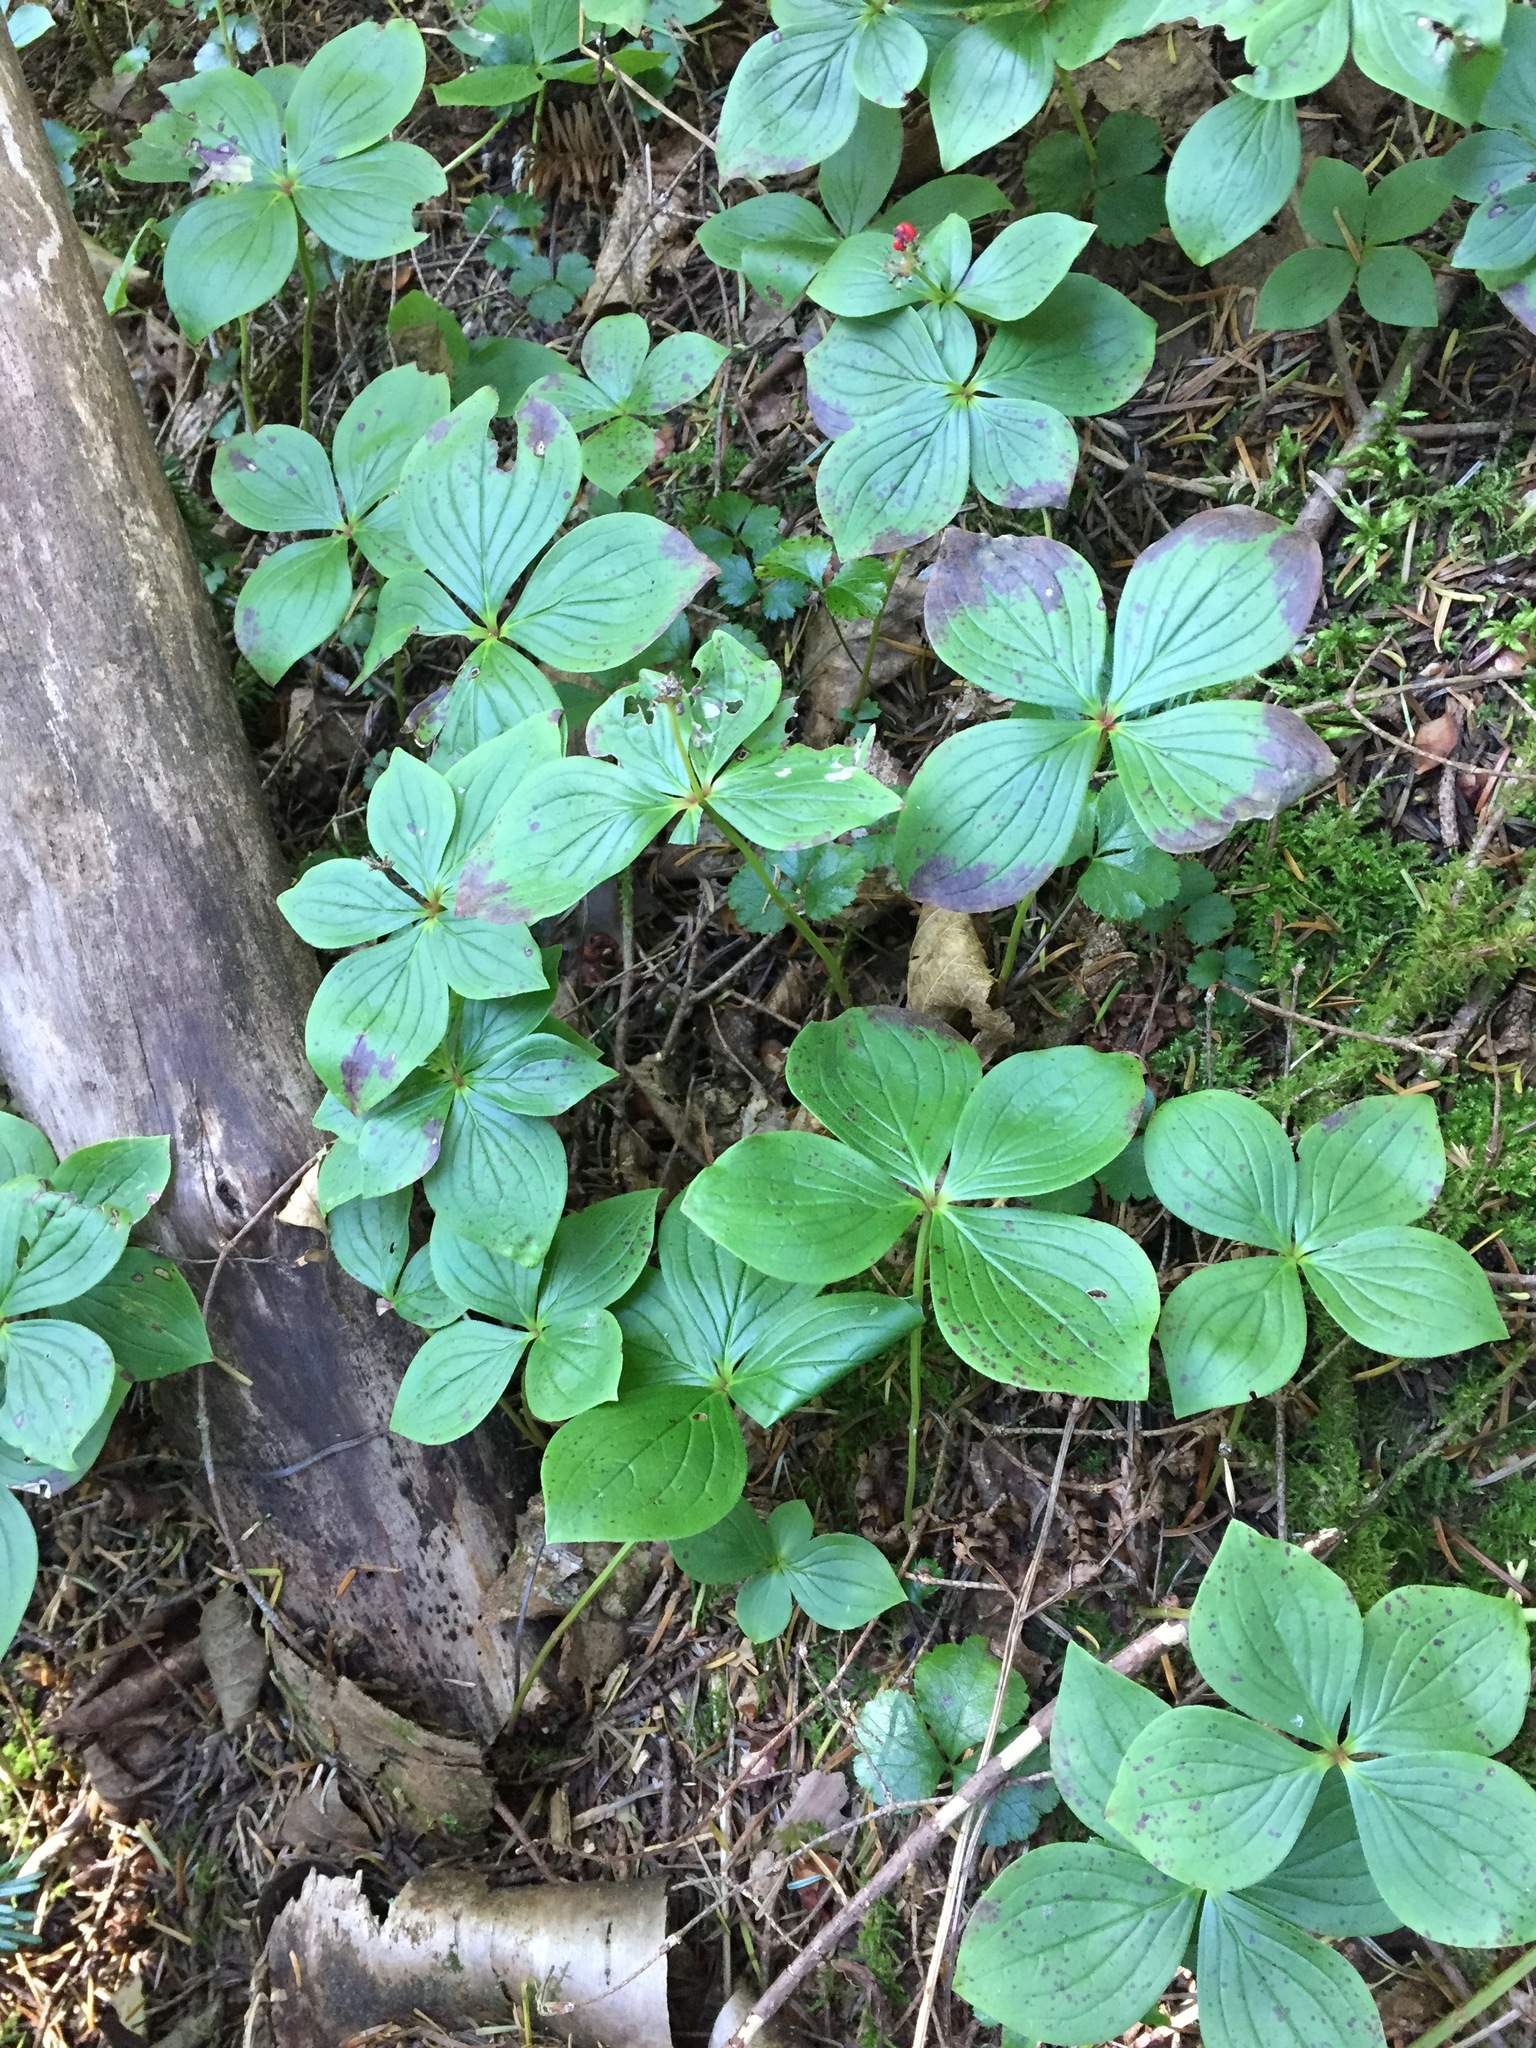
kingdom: Plantae
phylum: Tracheophyta
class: Magnoliopsida
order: Cornales
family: Cornaceae
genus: Cornus
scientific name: Cornus canadensis
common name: Creeping dogwood
